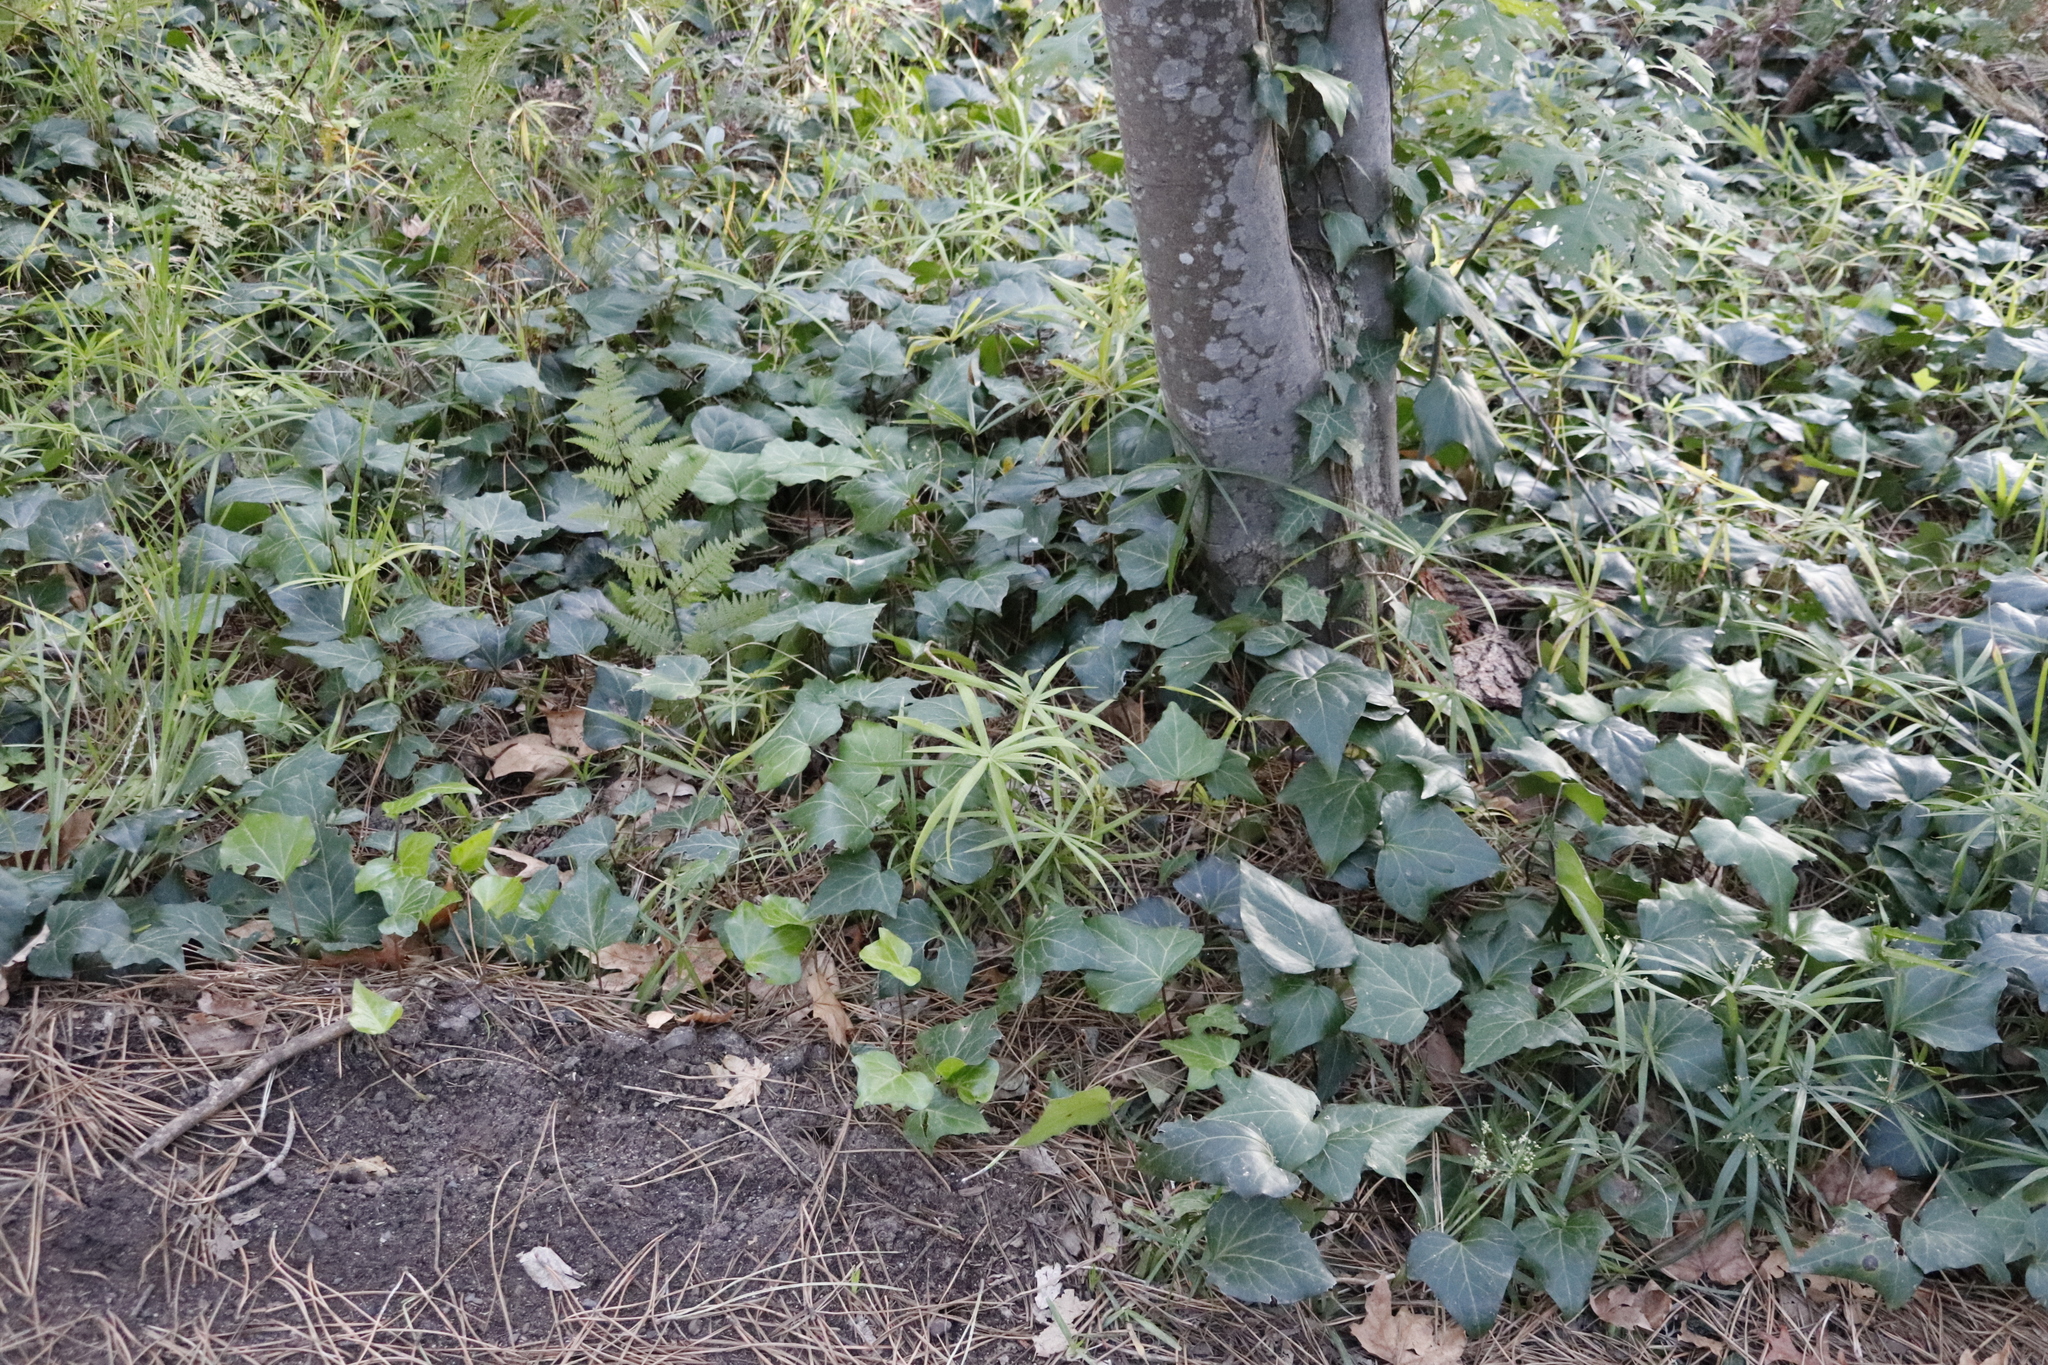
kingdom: Plantae
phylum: Tracheophyta
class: Liliopsida
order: Poales
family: Cyperaceae
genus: Cyperus
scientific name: Cyperus albostriatus
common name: Dwarf umbrella-grass
